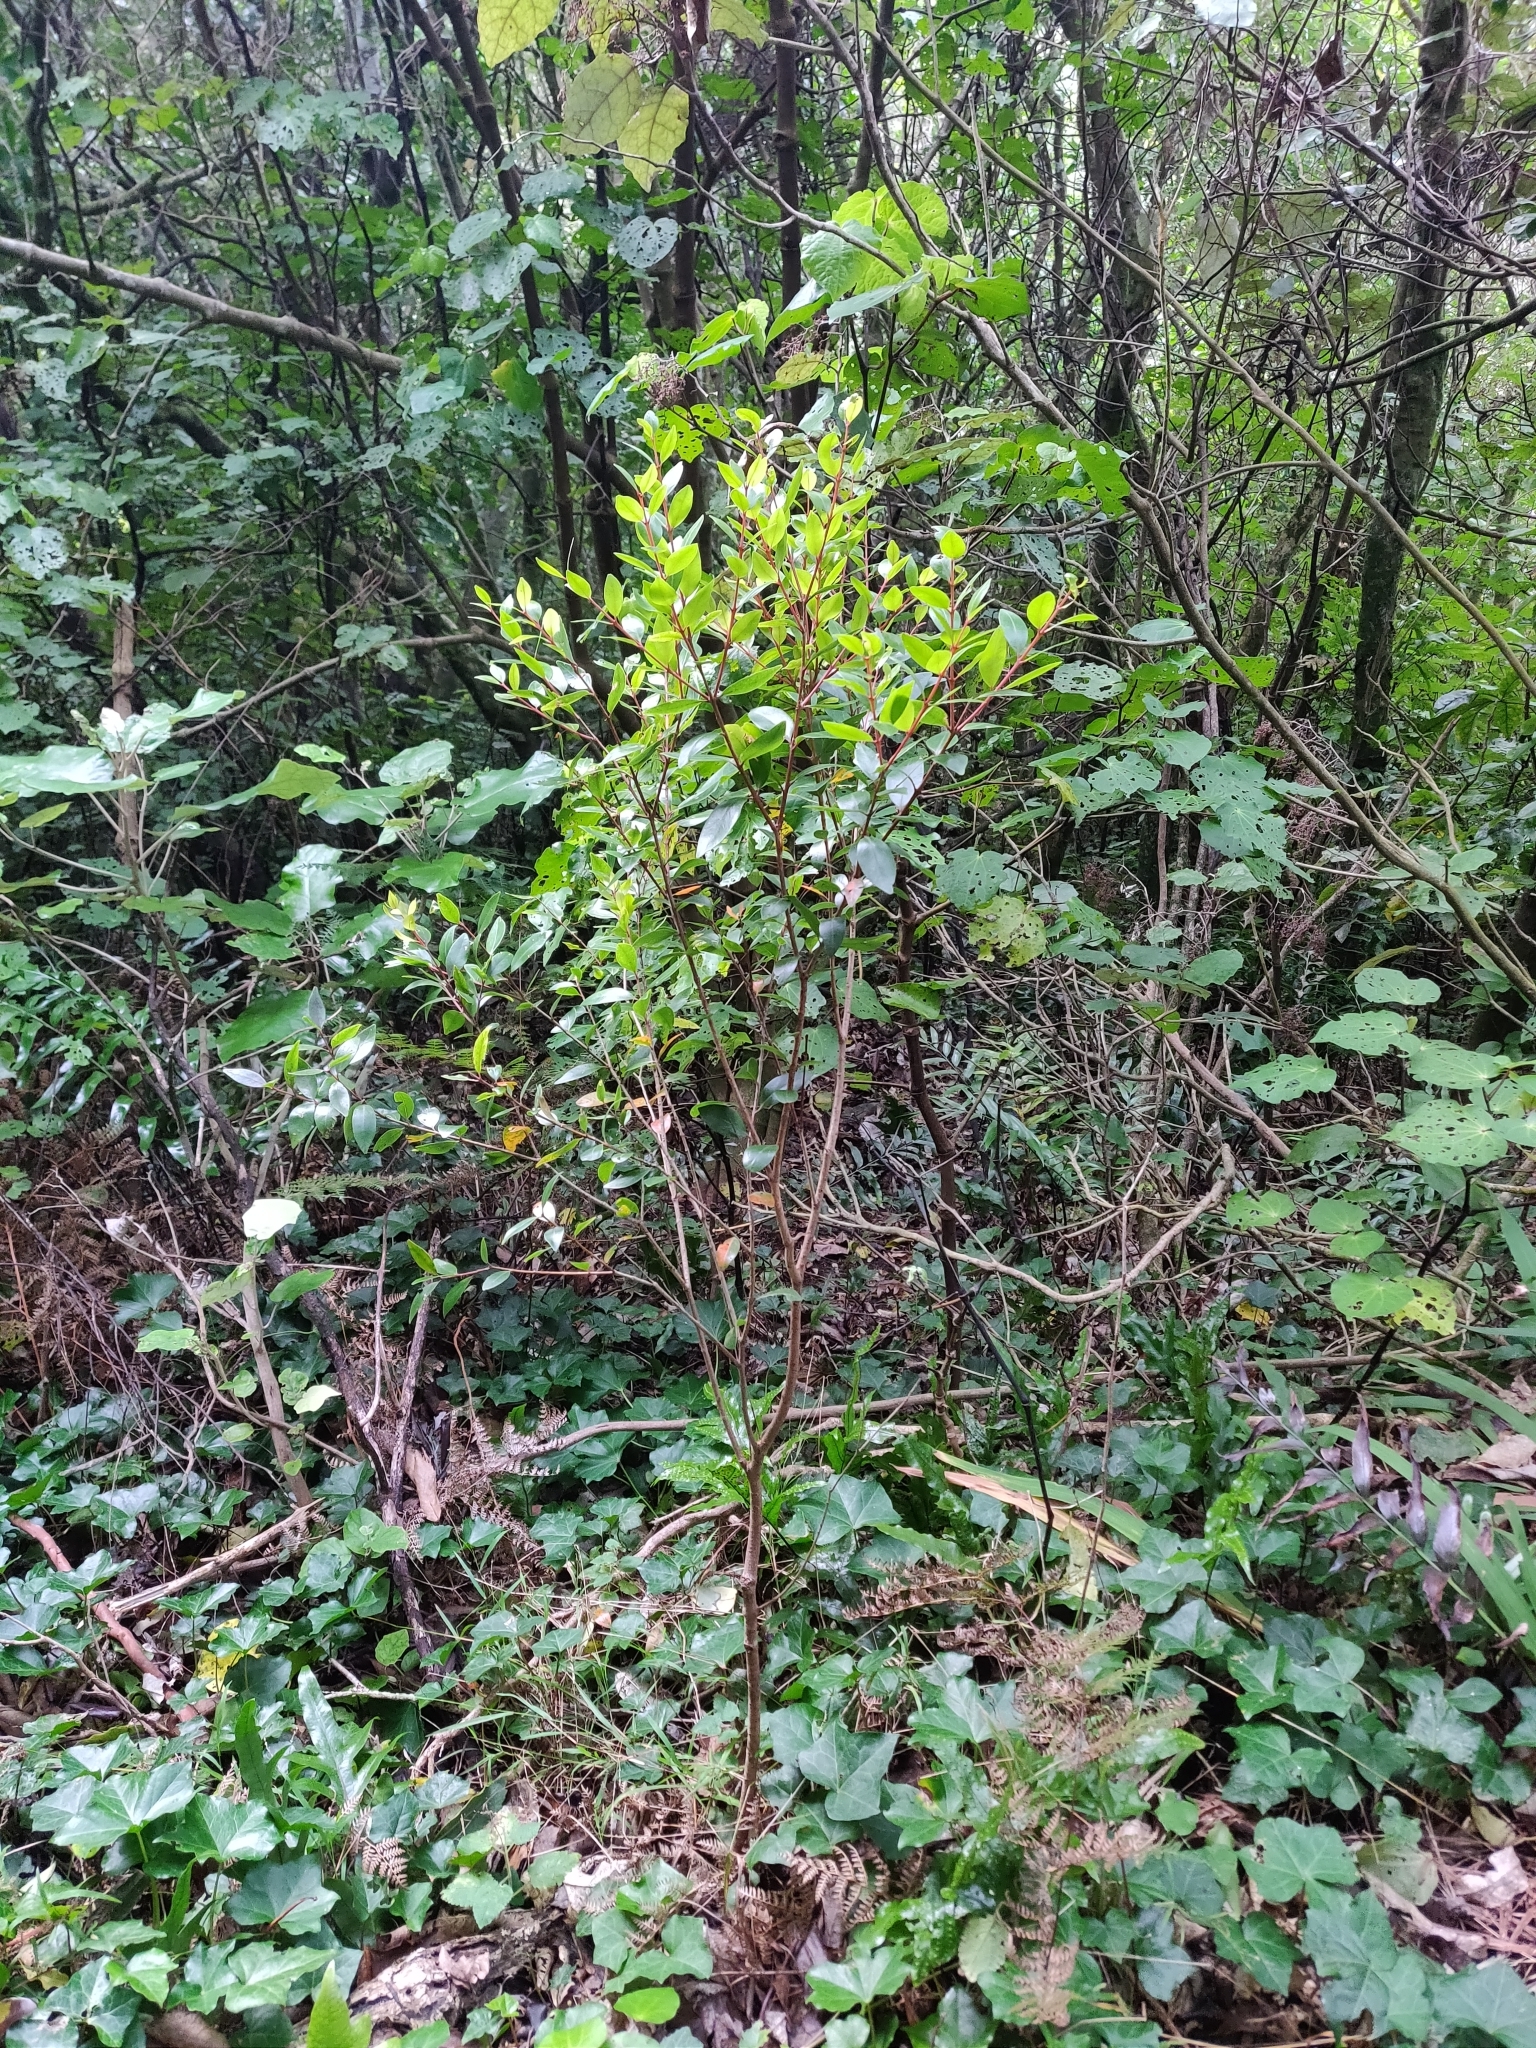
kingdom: Plantae
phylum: Tracheophyta
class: Magnoliopsida
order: Myrtales
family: Myrtaceae
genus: Metrosideros
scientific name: Metrosideros robusta
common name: Northern rata
